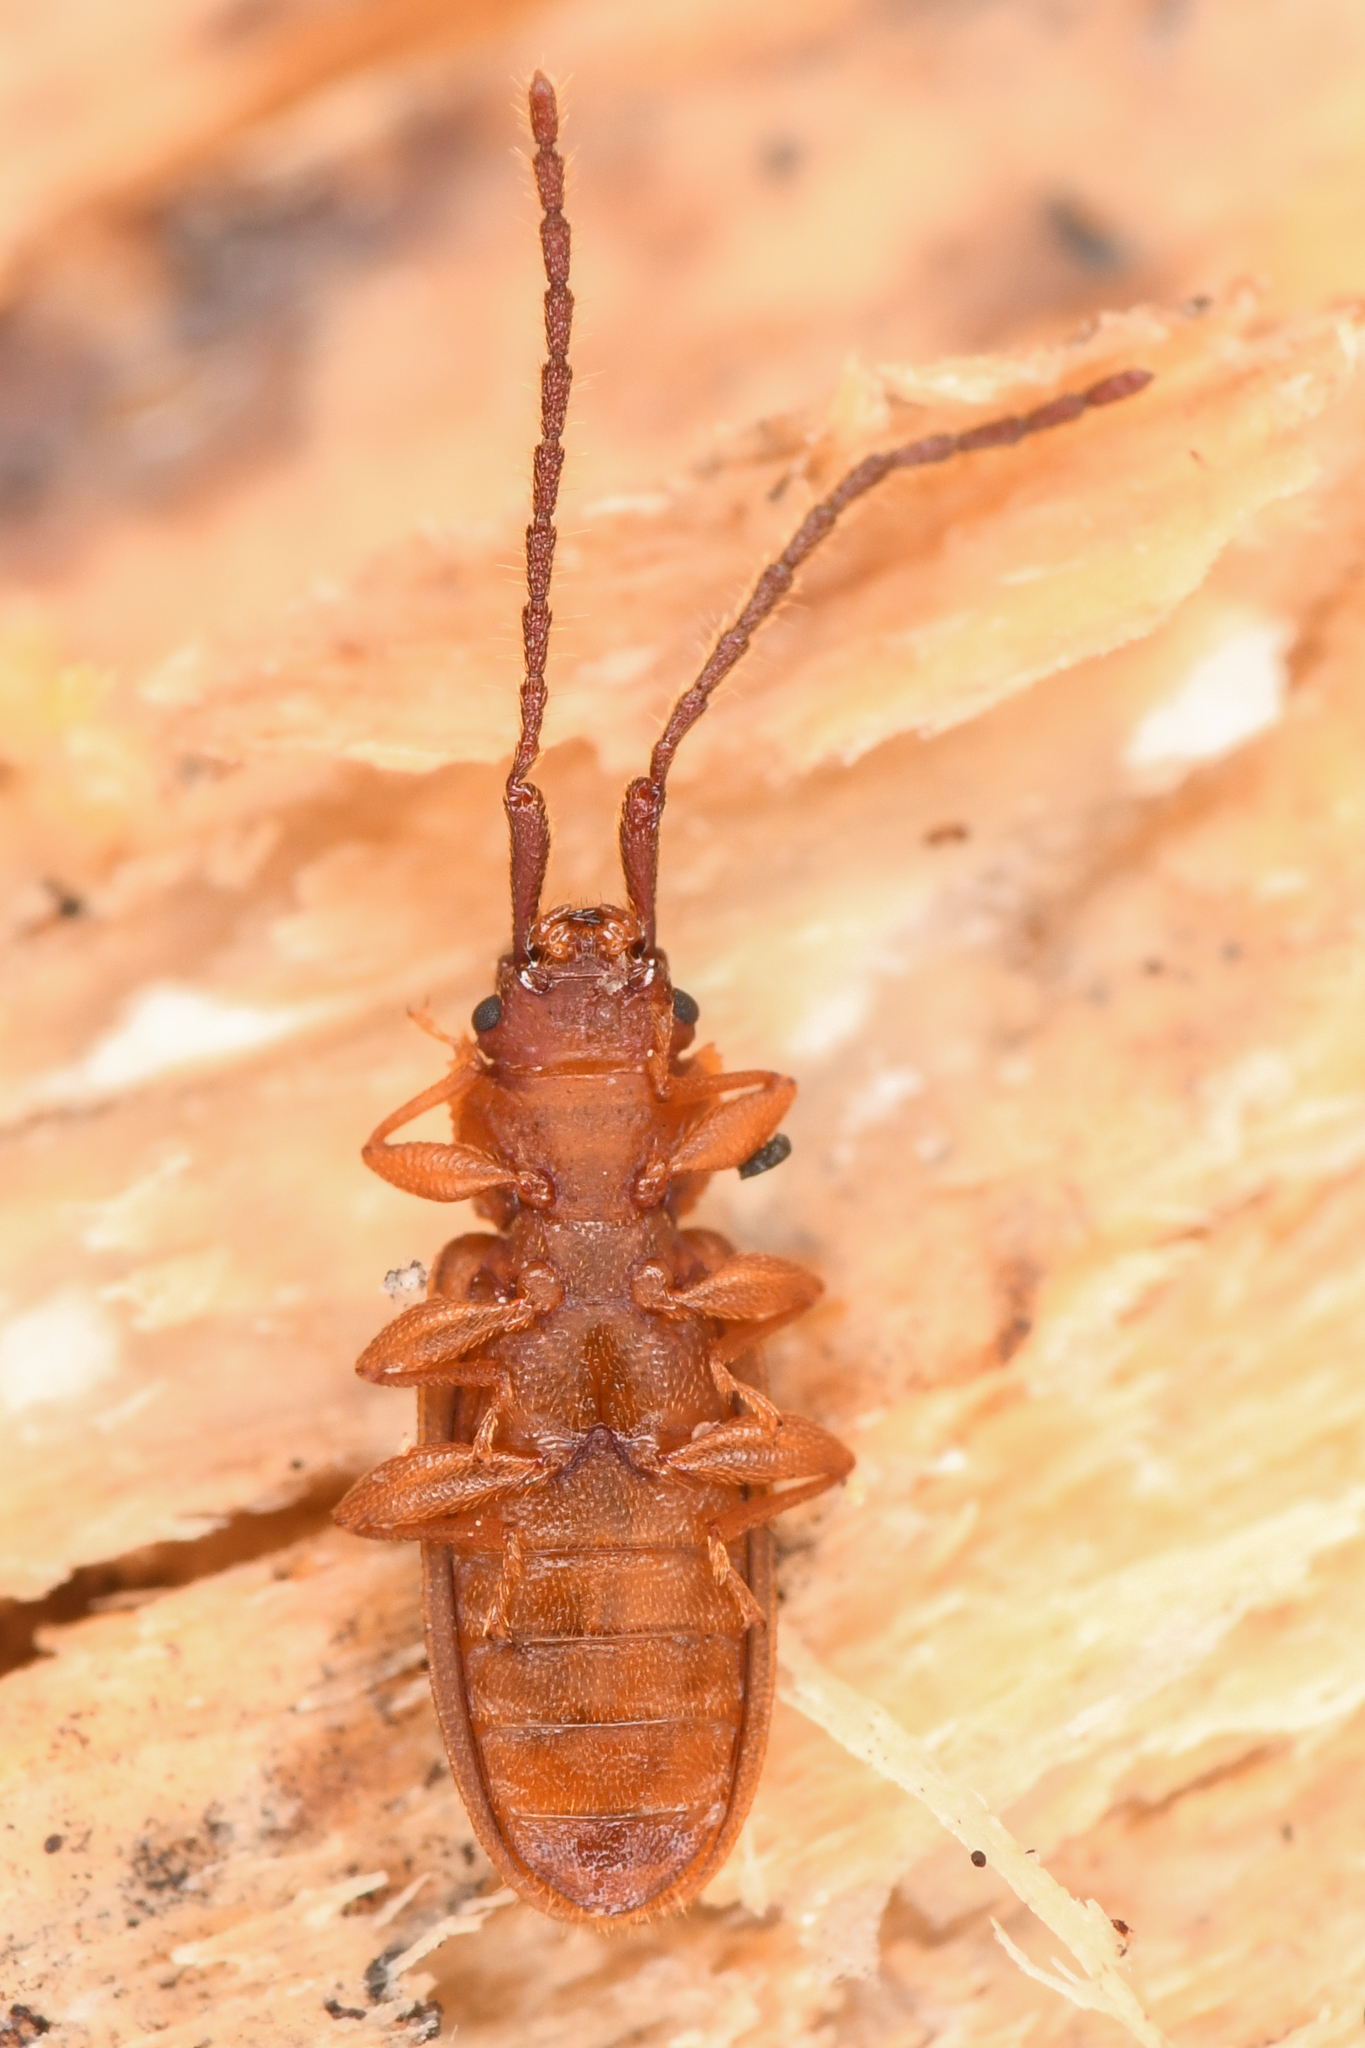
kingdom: Animalia
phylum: Arthropoda
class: Insecta
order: Coleoptera
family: Silvanidae
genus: Uleiota
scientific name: Uleiota
